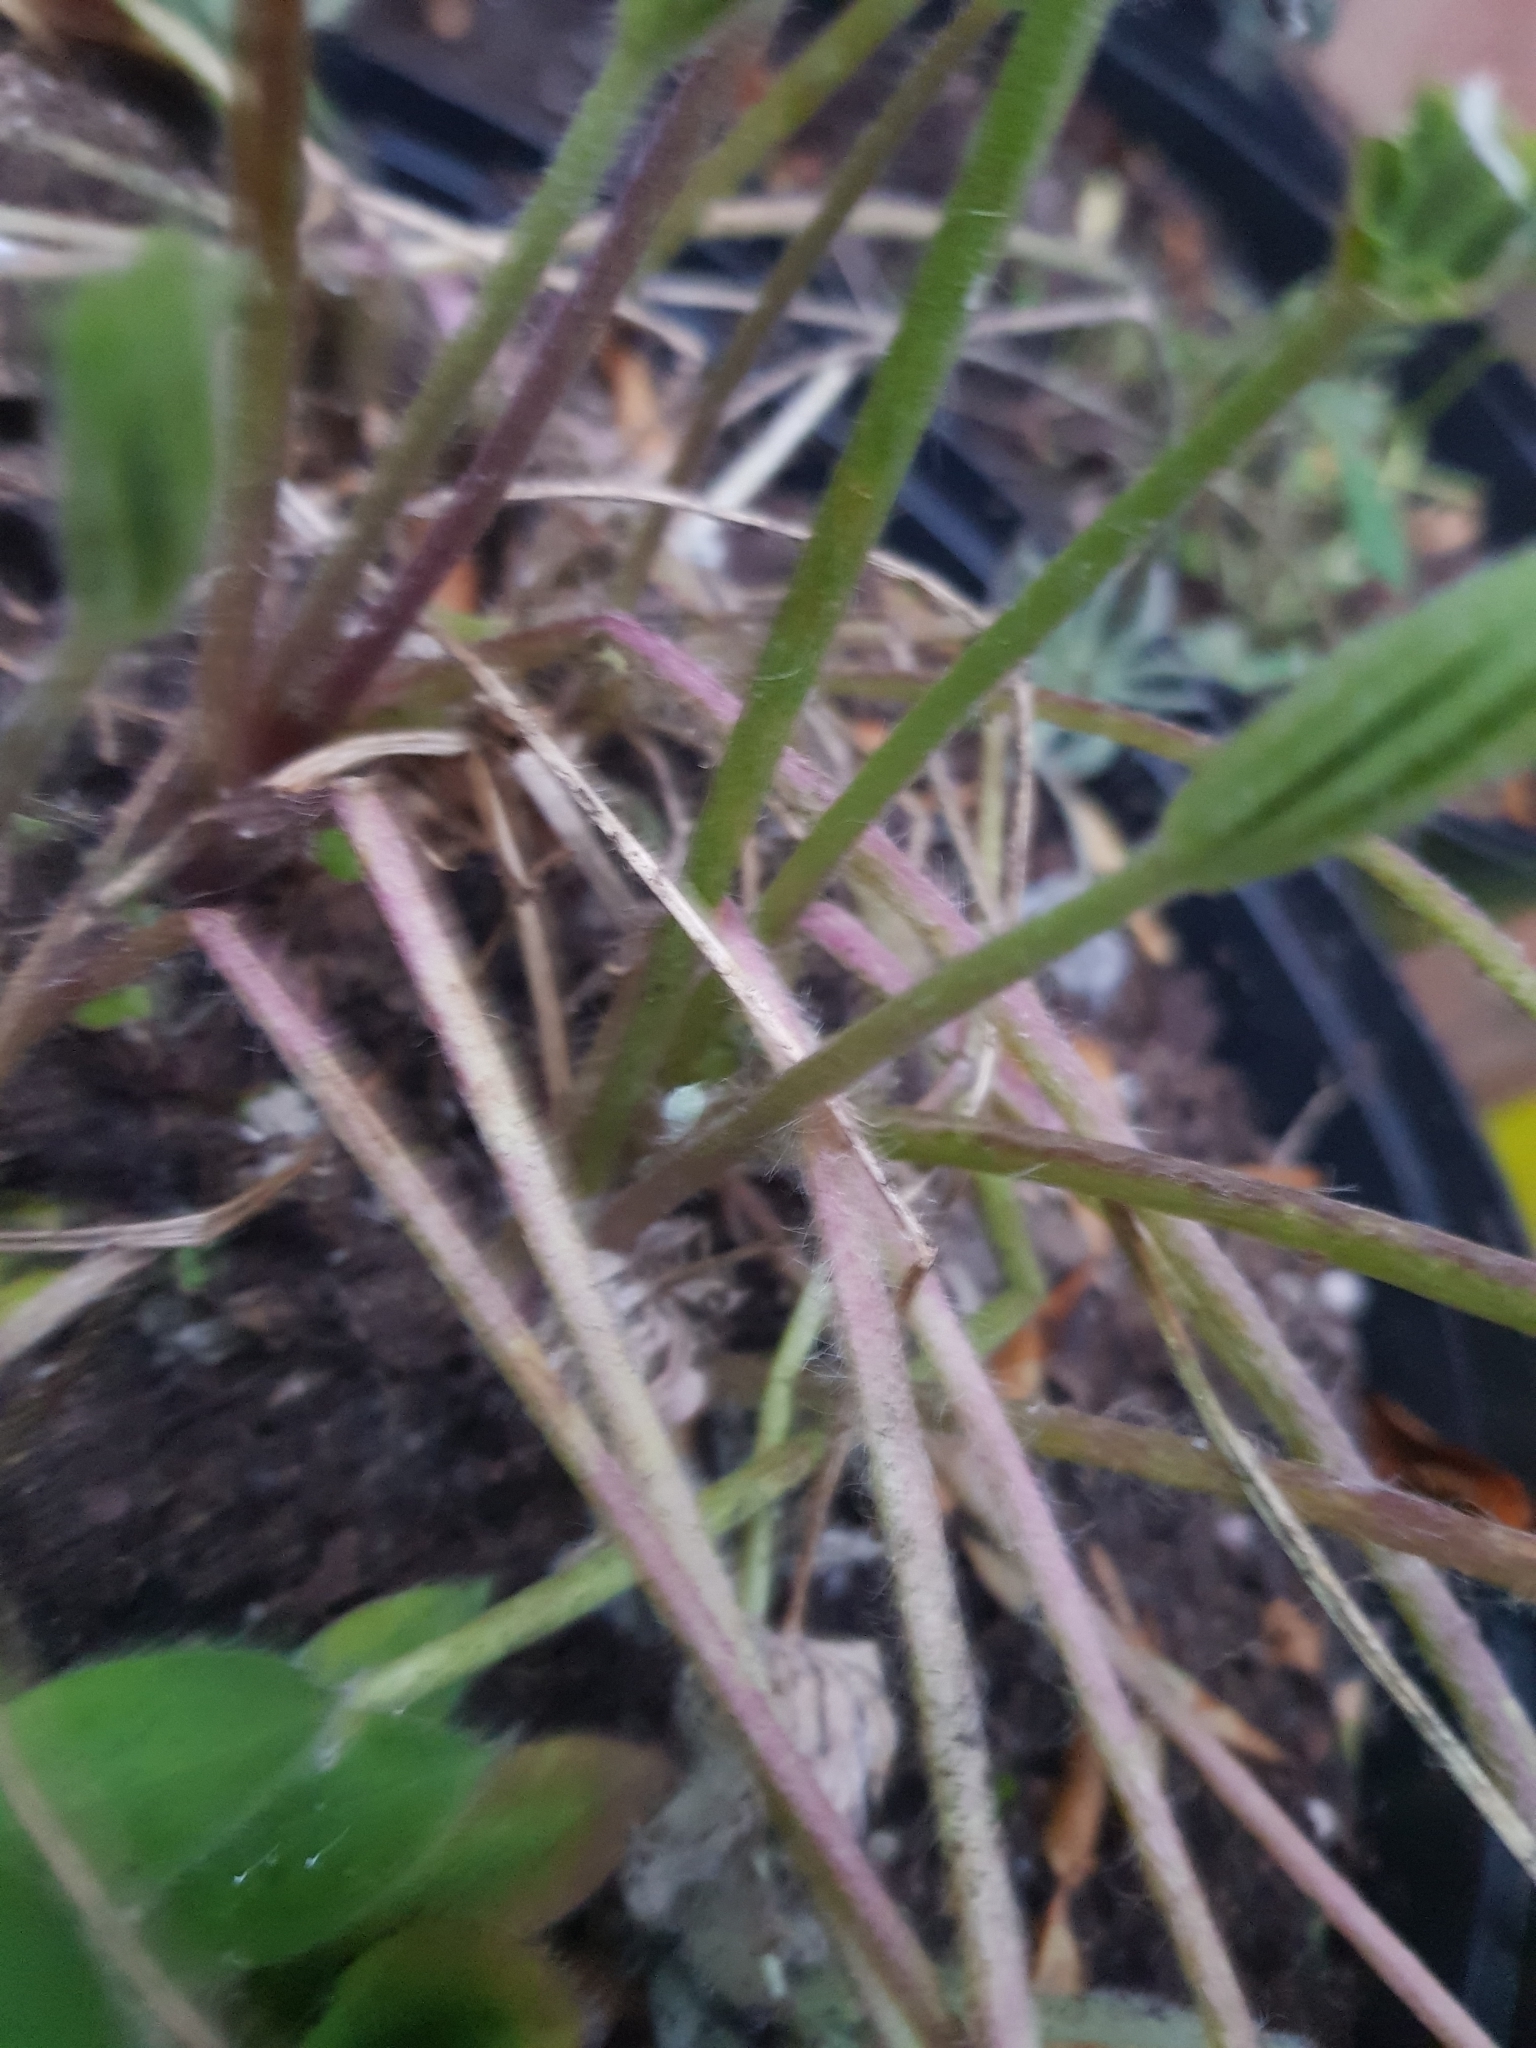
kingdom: Animalia
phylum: Arthropoda
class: Insecta
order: Hemiptera
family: Aphididae
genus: Macrosiphum
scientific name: Macrosiphum albifrons
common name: Lupine aphid
